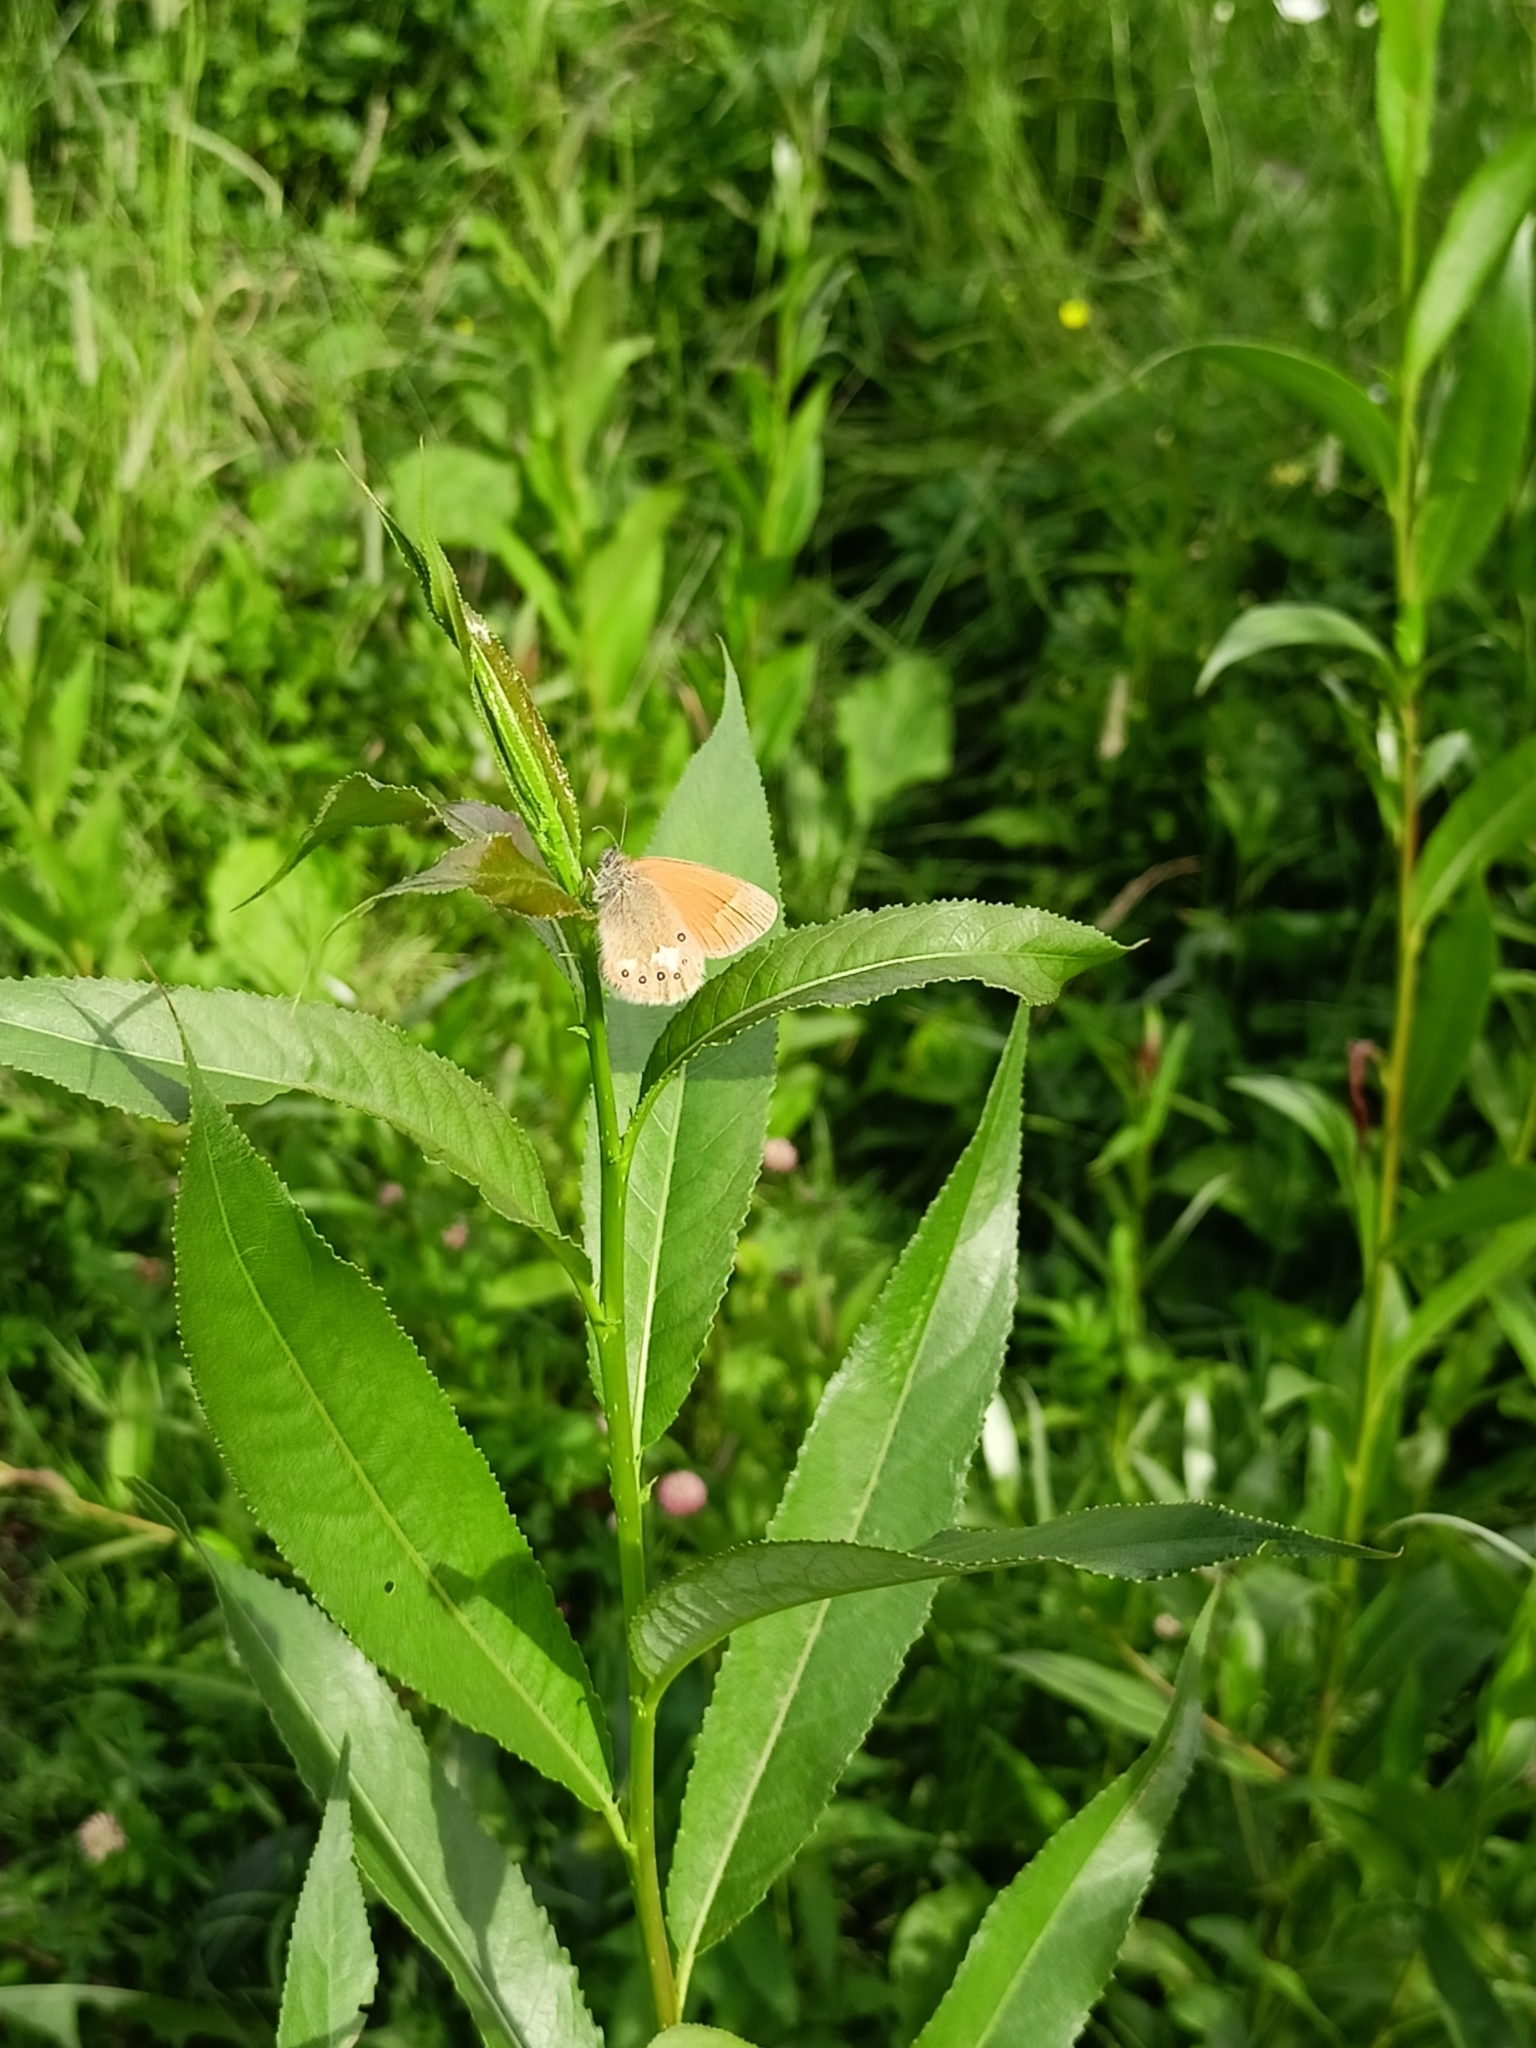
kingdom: Animalia
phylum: Arthropoda
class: Insecta
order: Lepidoptera
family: Nymphalidae
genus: Coenonympha
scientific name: Coenonympha iphis
